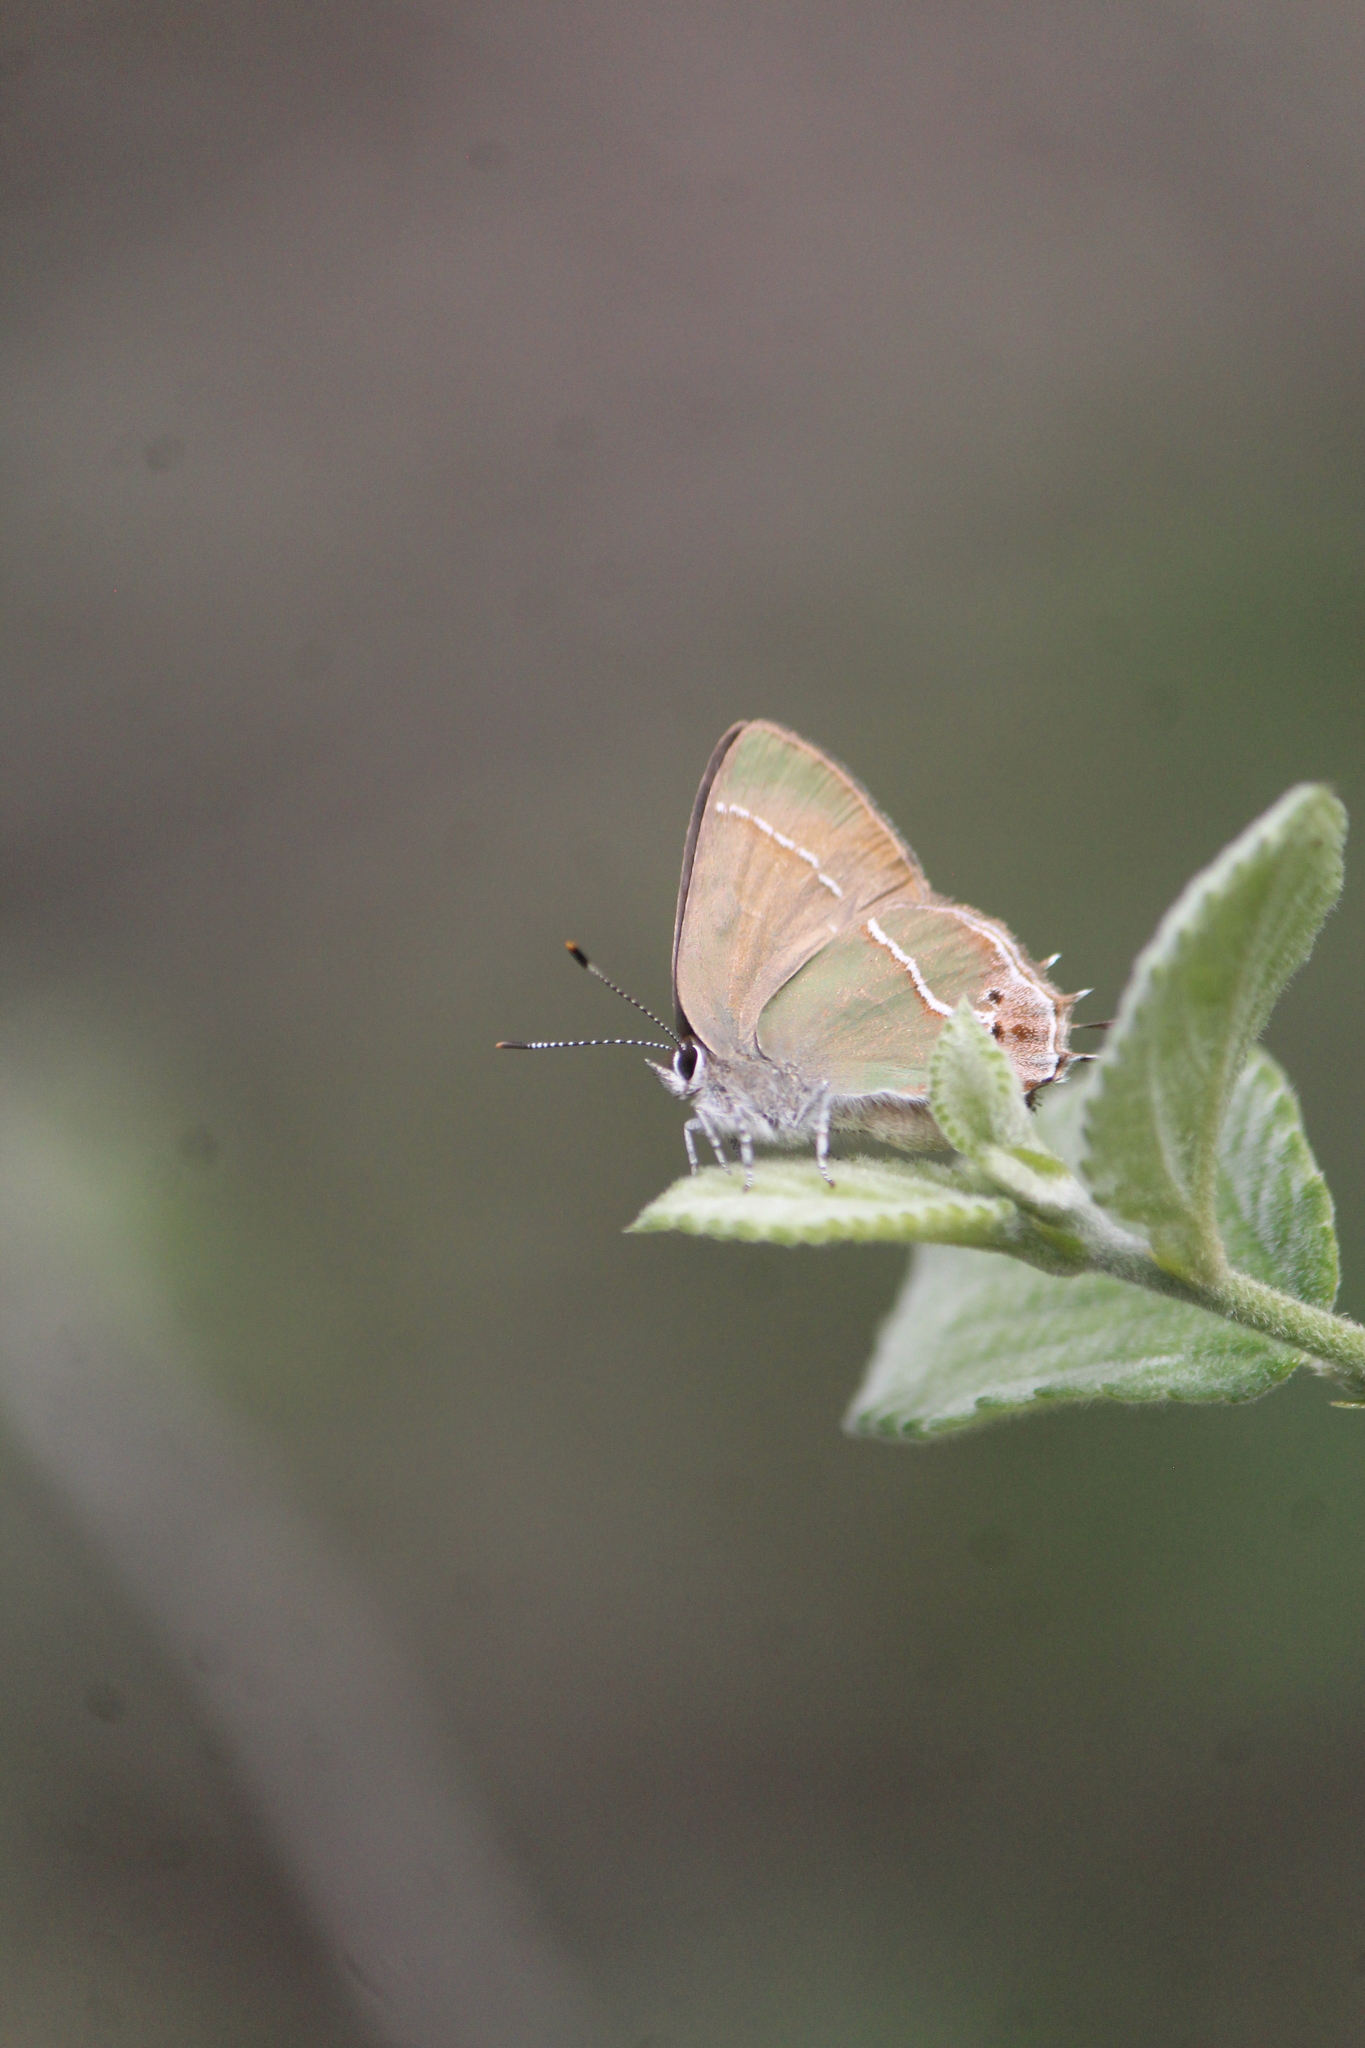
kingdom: Animalia
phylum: Arthropoda
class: Insecta
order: Lepidoptera
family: Lycaenidae
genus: Xamia
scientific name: Xamia xami
